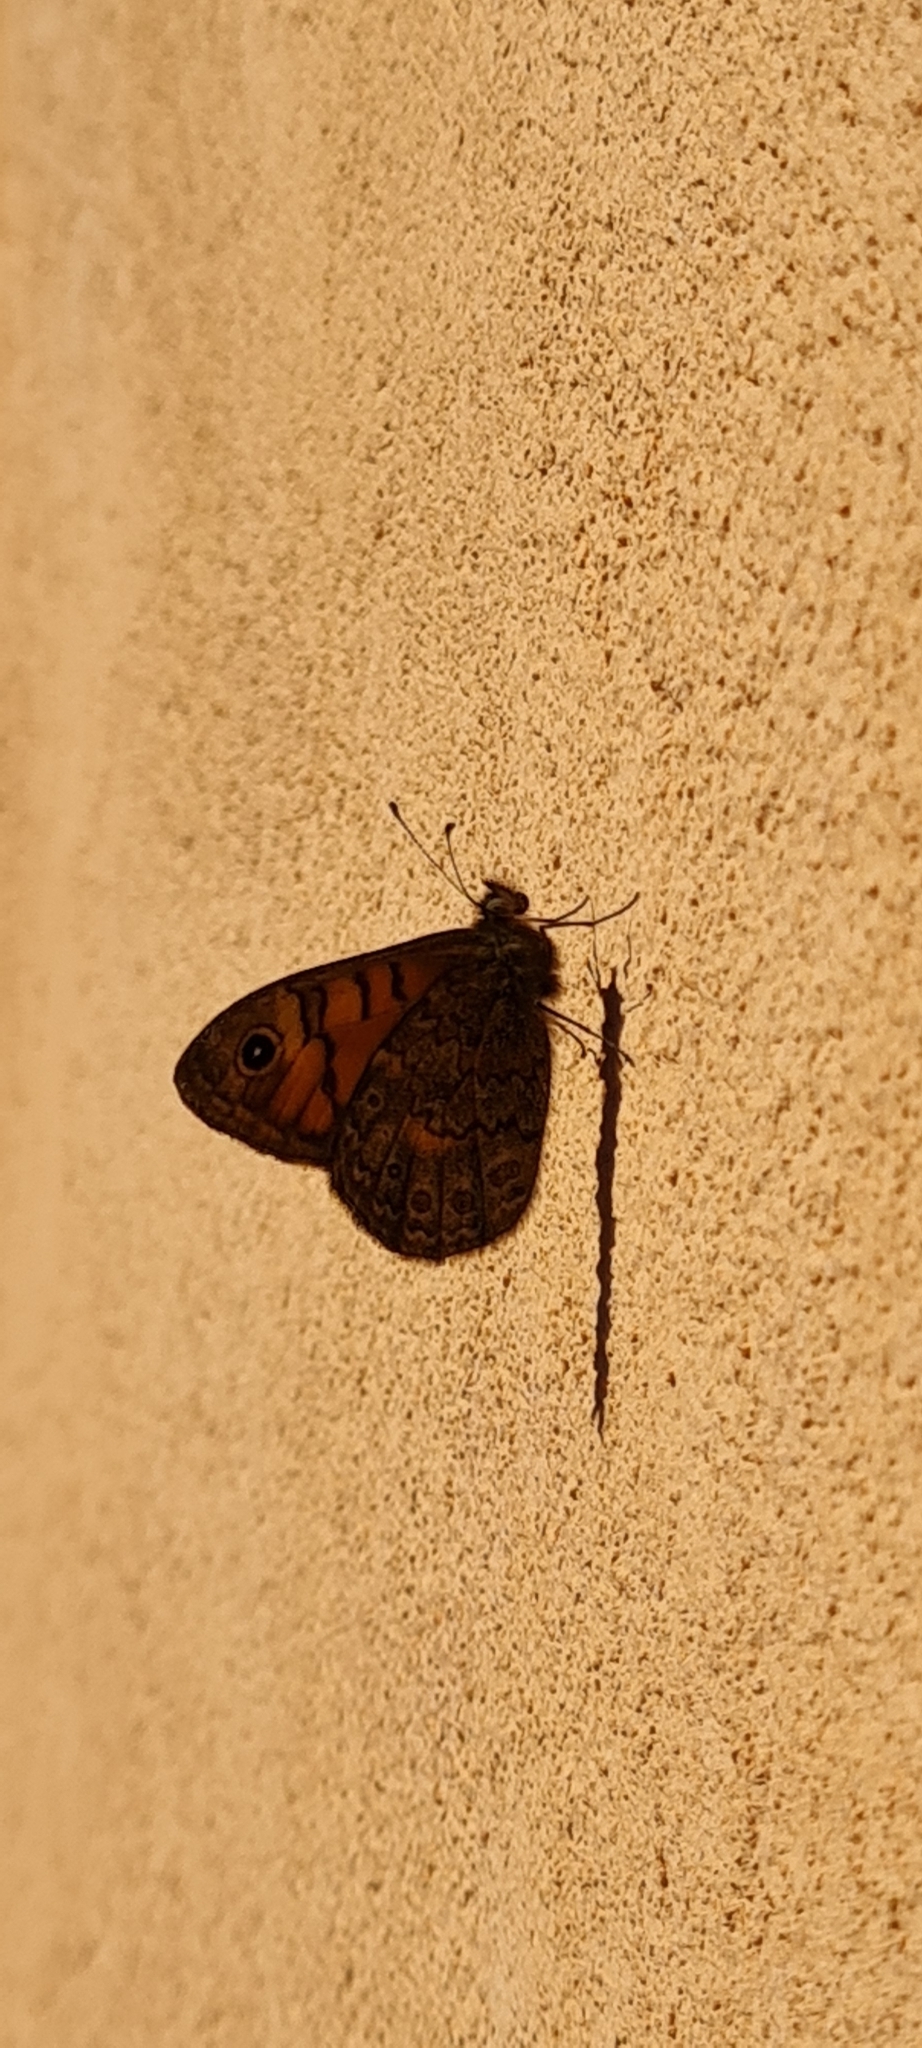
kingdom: Animalia
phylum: Arthropoda
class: Insecta
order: Lepidoptera
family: Nymphalidae
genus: Pararge
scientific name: Pararge Lasiommata megera
